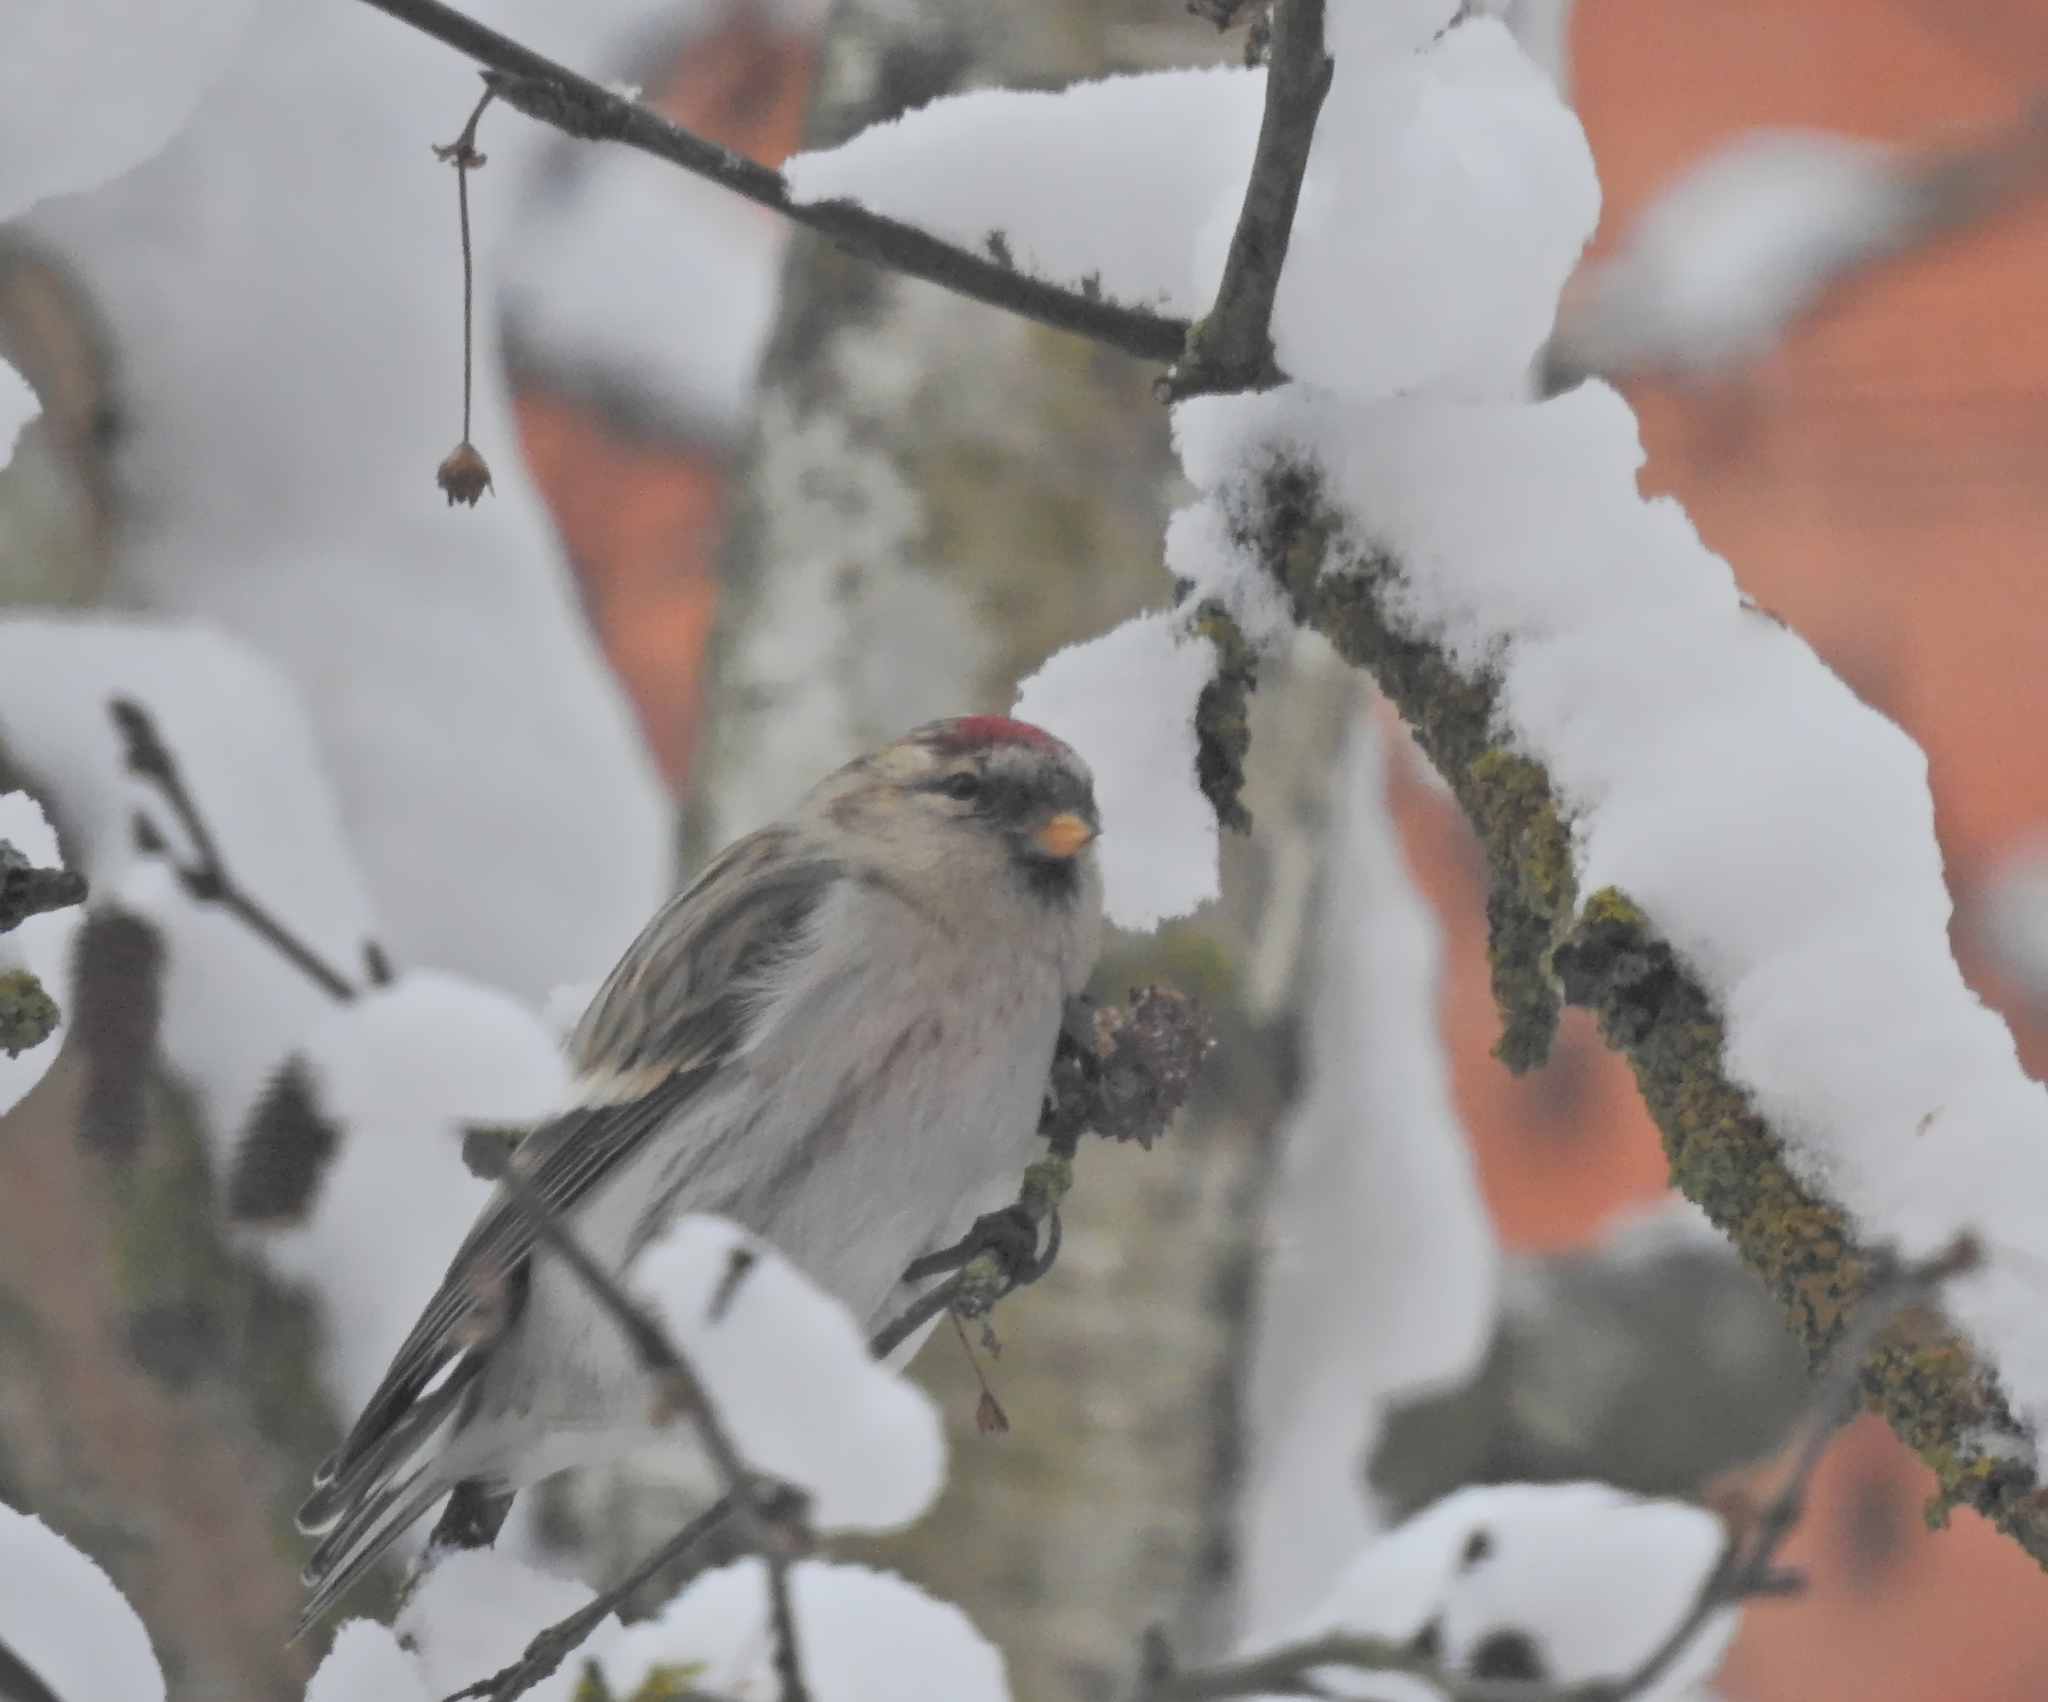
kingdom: Animalia
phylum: Chordata
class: Aves
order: Passeriformes
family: Fringillidae
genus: Acanthis
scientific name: Acanthis flammea
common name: Common redpoll
